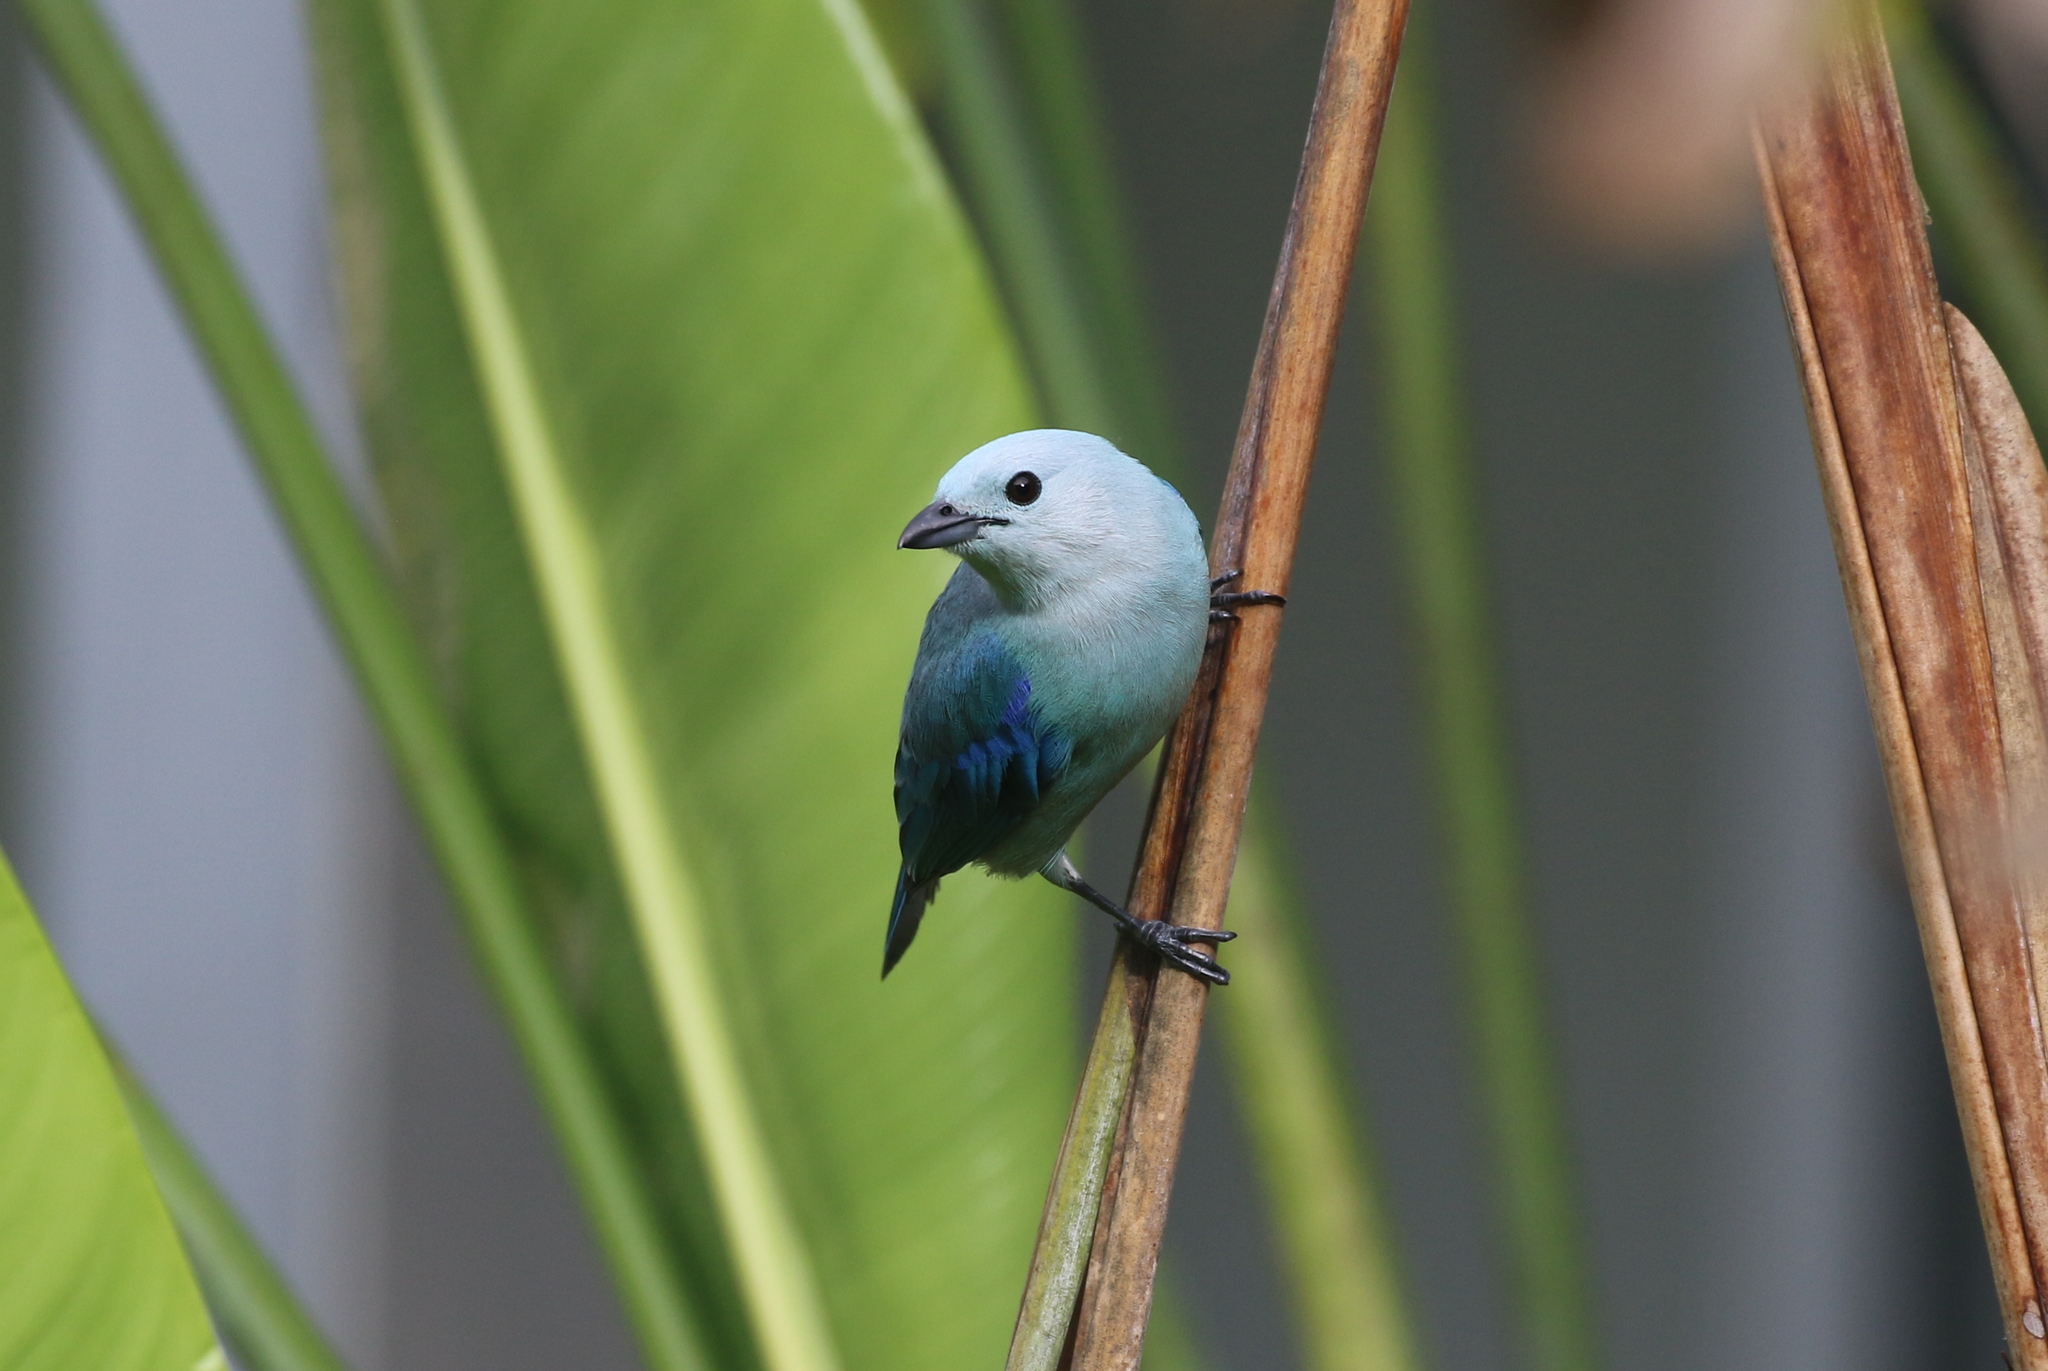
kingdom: Animalia
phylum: Chordata
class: Aves
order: Passeriformes
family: Thraupidae
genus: Thraupis
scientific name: Thraupis episcopus
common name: Blue-grey tanager
